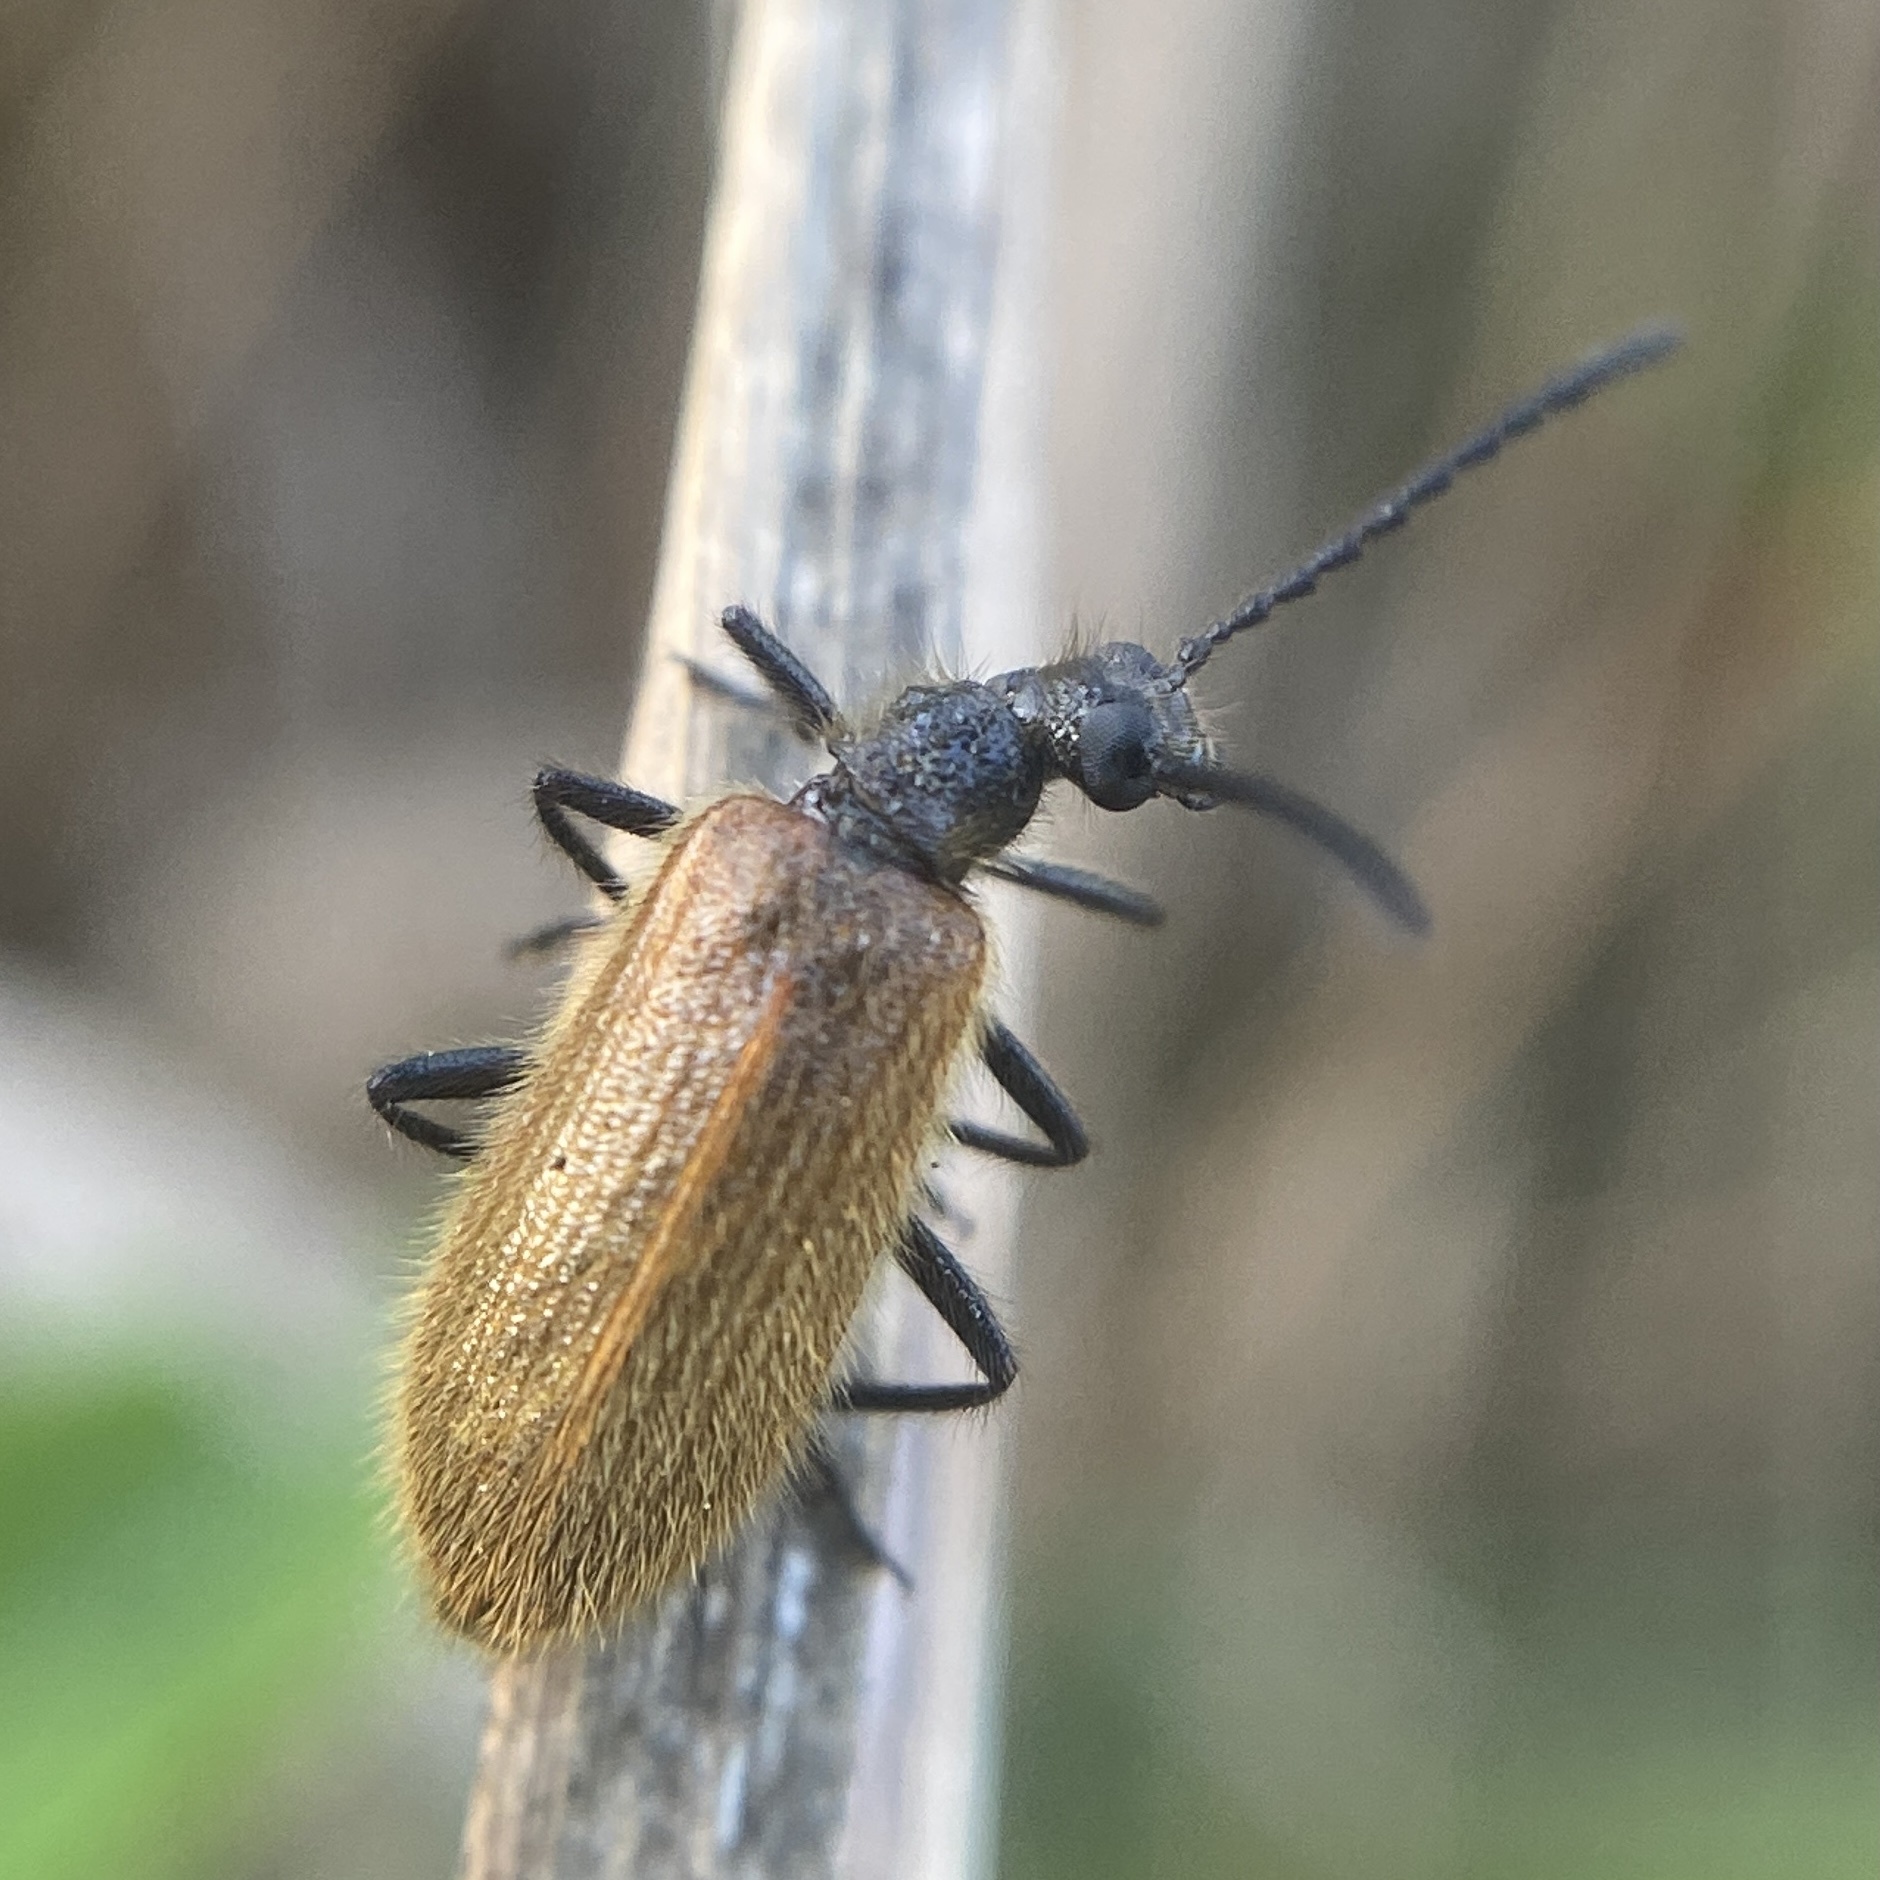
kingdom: Animalia
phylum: Arthropoda
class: Insecta
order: Coleoptera
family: Tenebrionidae
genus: Lagria
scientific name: Lagria hirta
